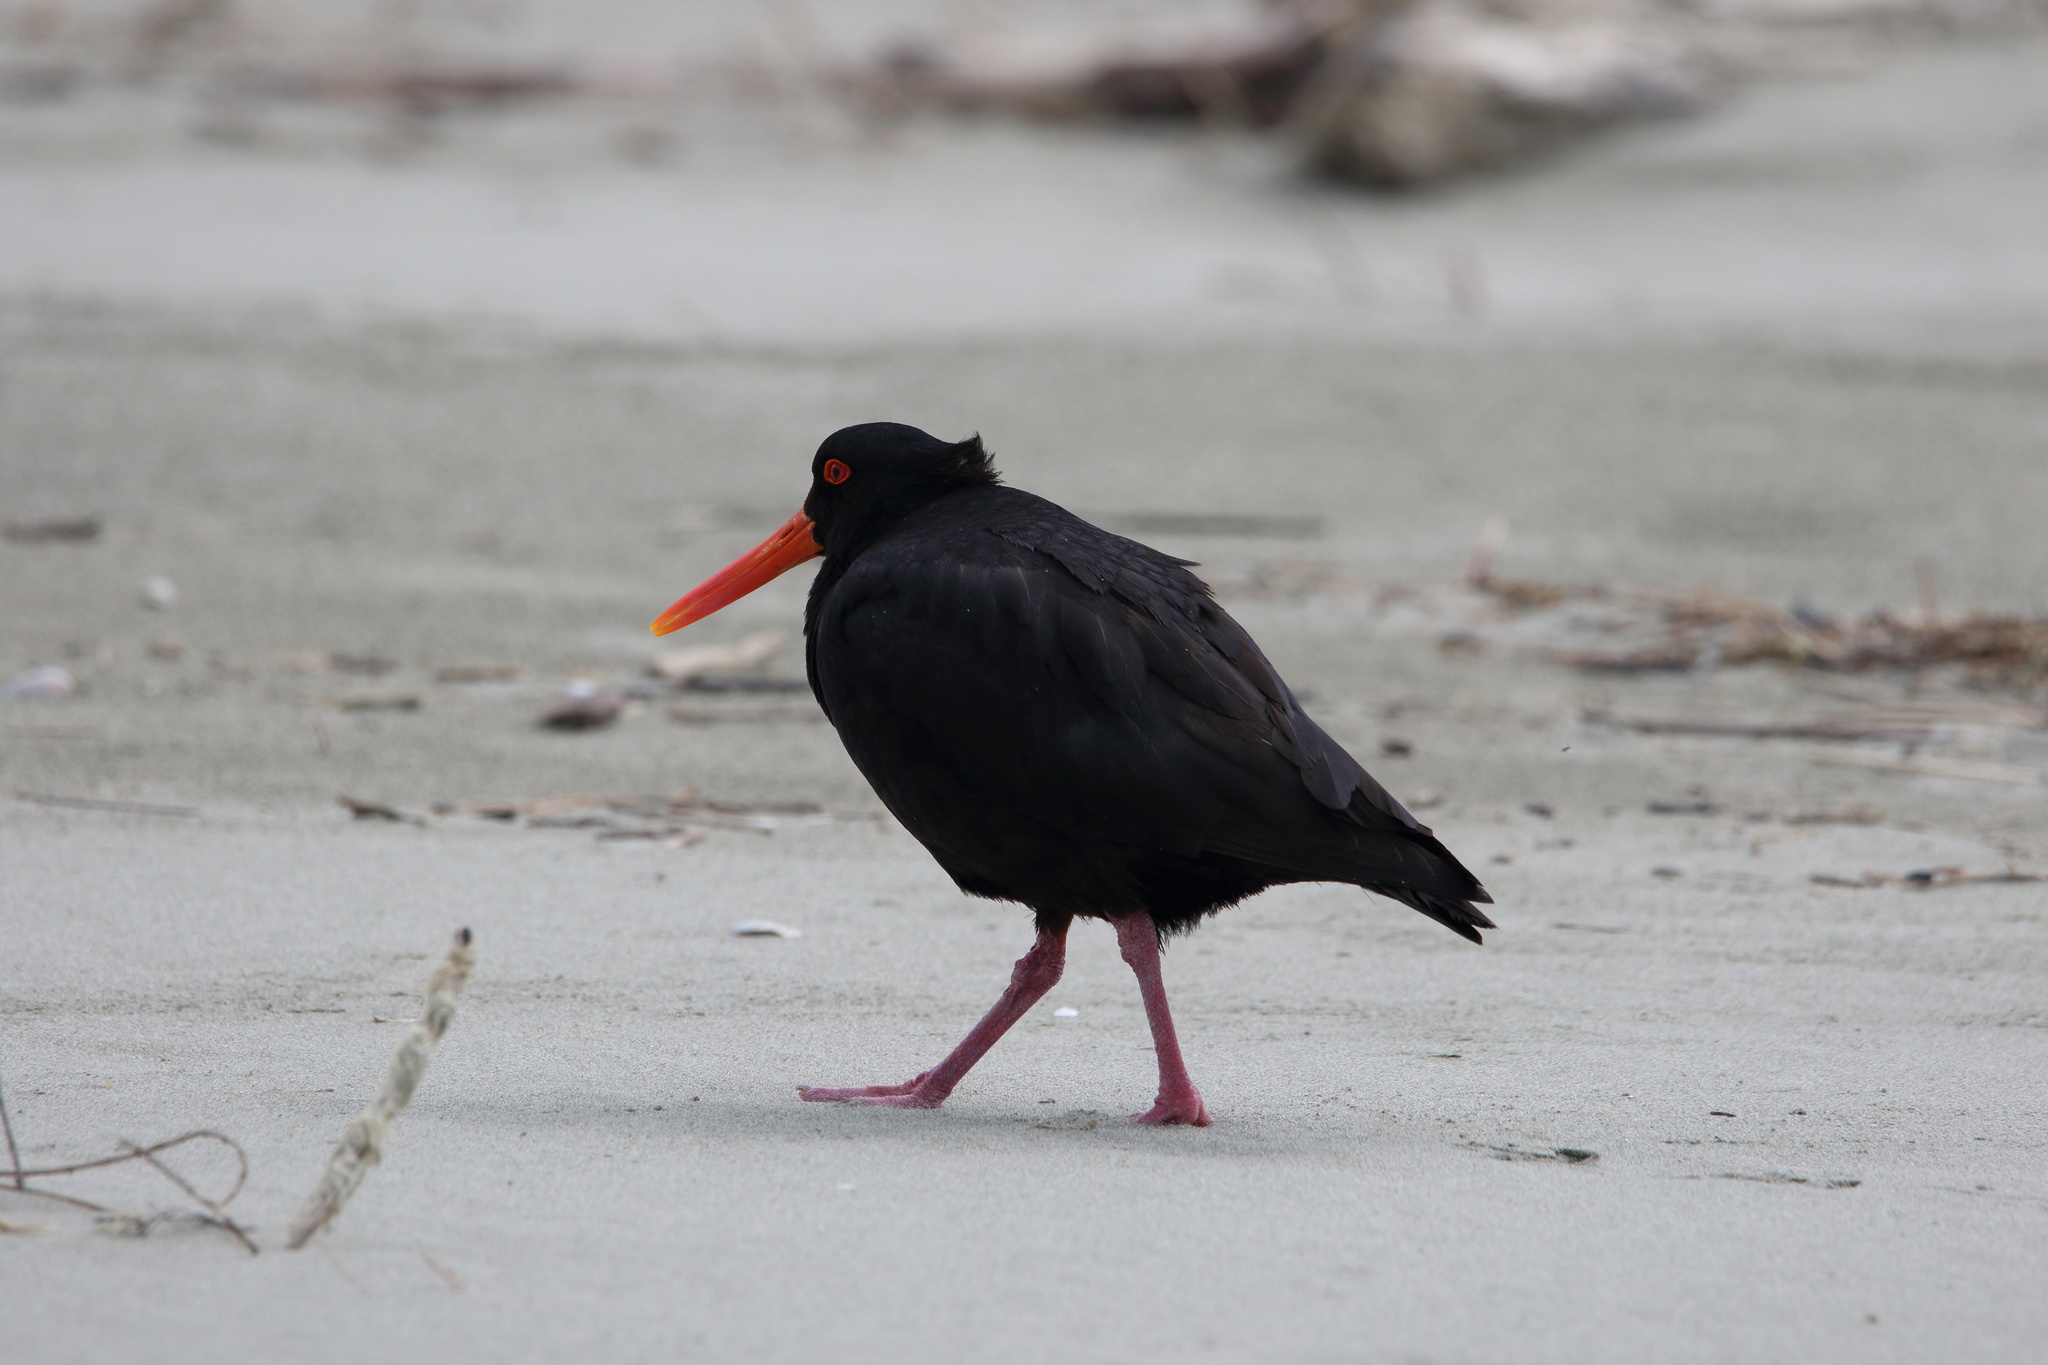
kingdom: Animalia
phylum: Chordata
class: Aves
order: Charadriiformes
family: Haematopodidae
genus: Haematopus
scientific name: Haematopus unicolor
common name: Variable oystercatcher
